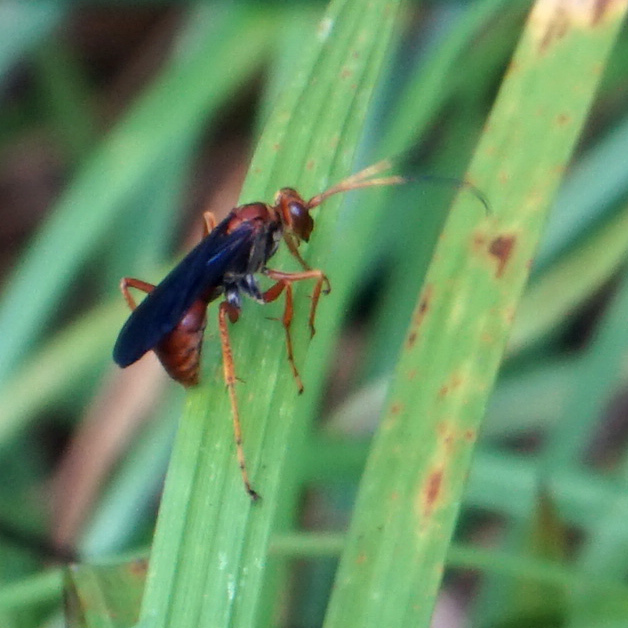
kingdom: Animalia
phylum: Arthropoda
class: Insecta
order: Hymenoptera
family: Pompilidae
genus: Priocnessus
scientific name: Priocnessus nuperus
